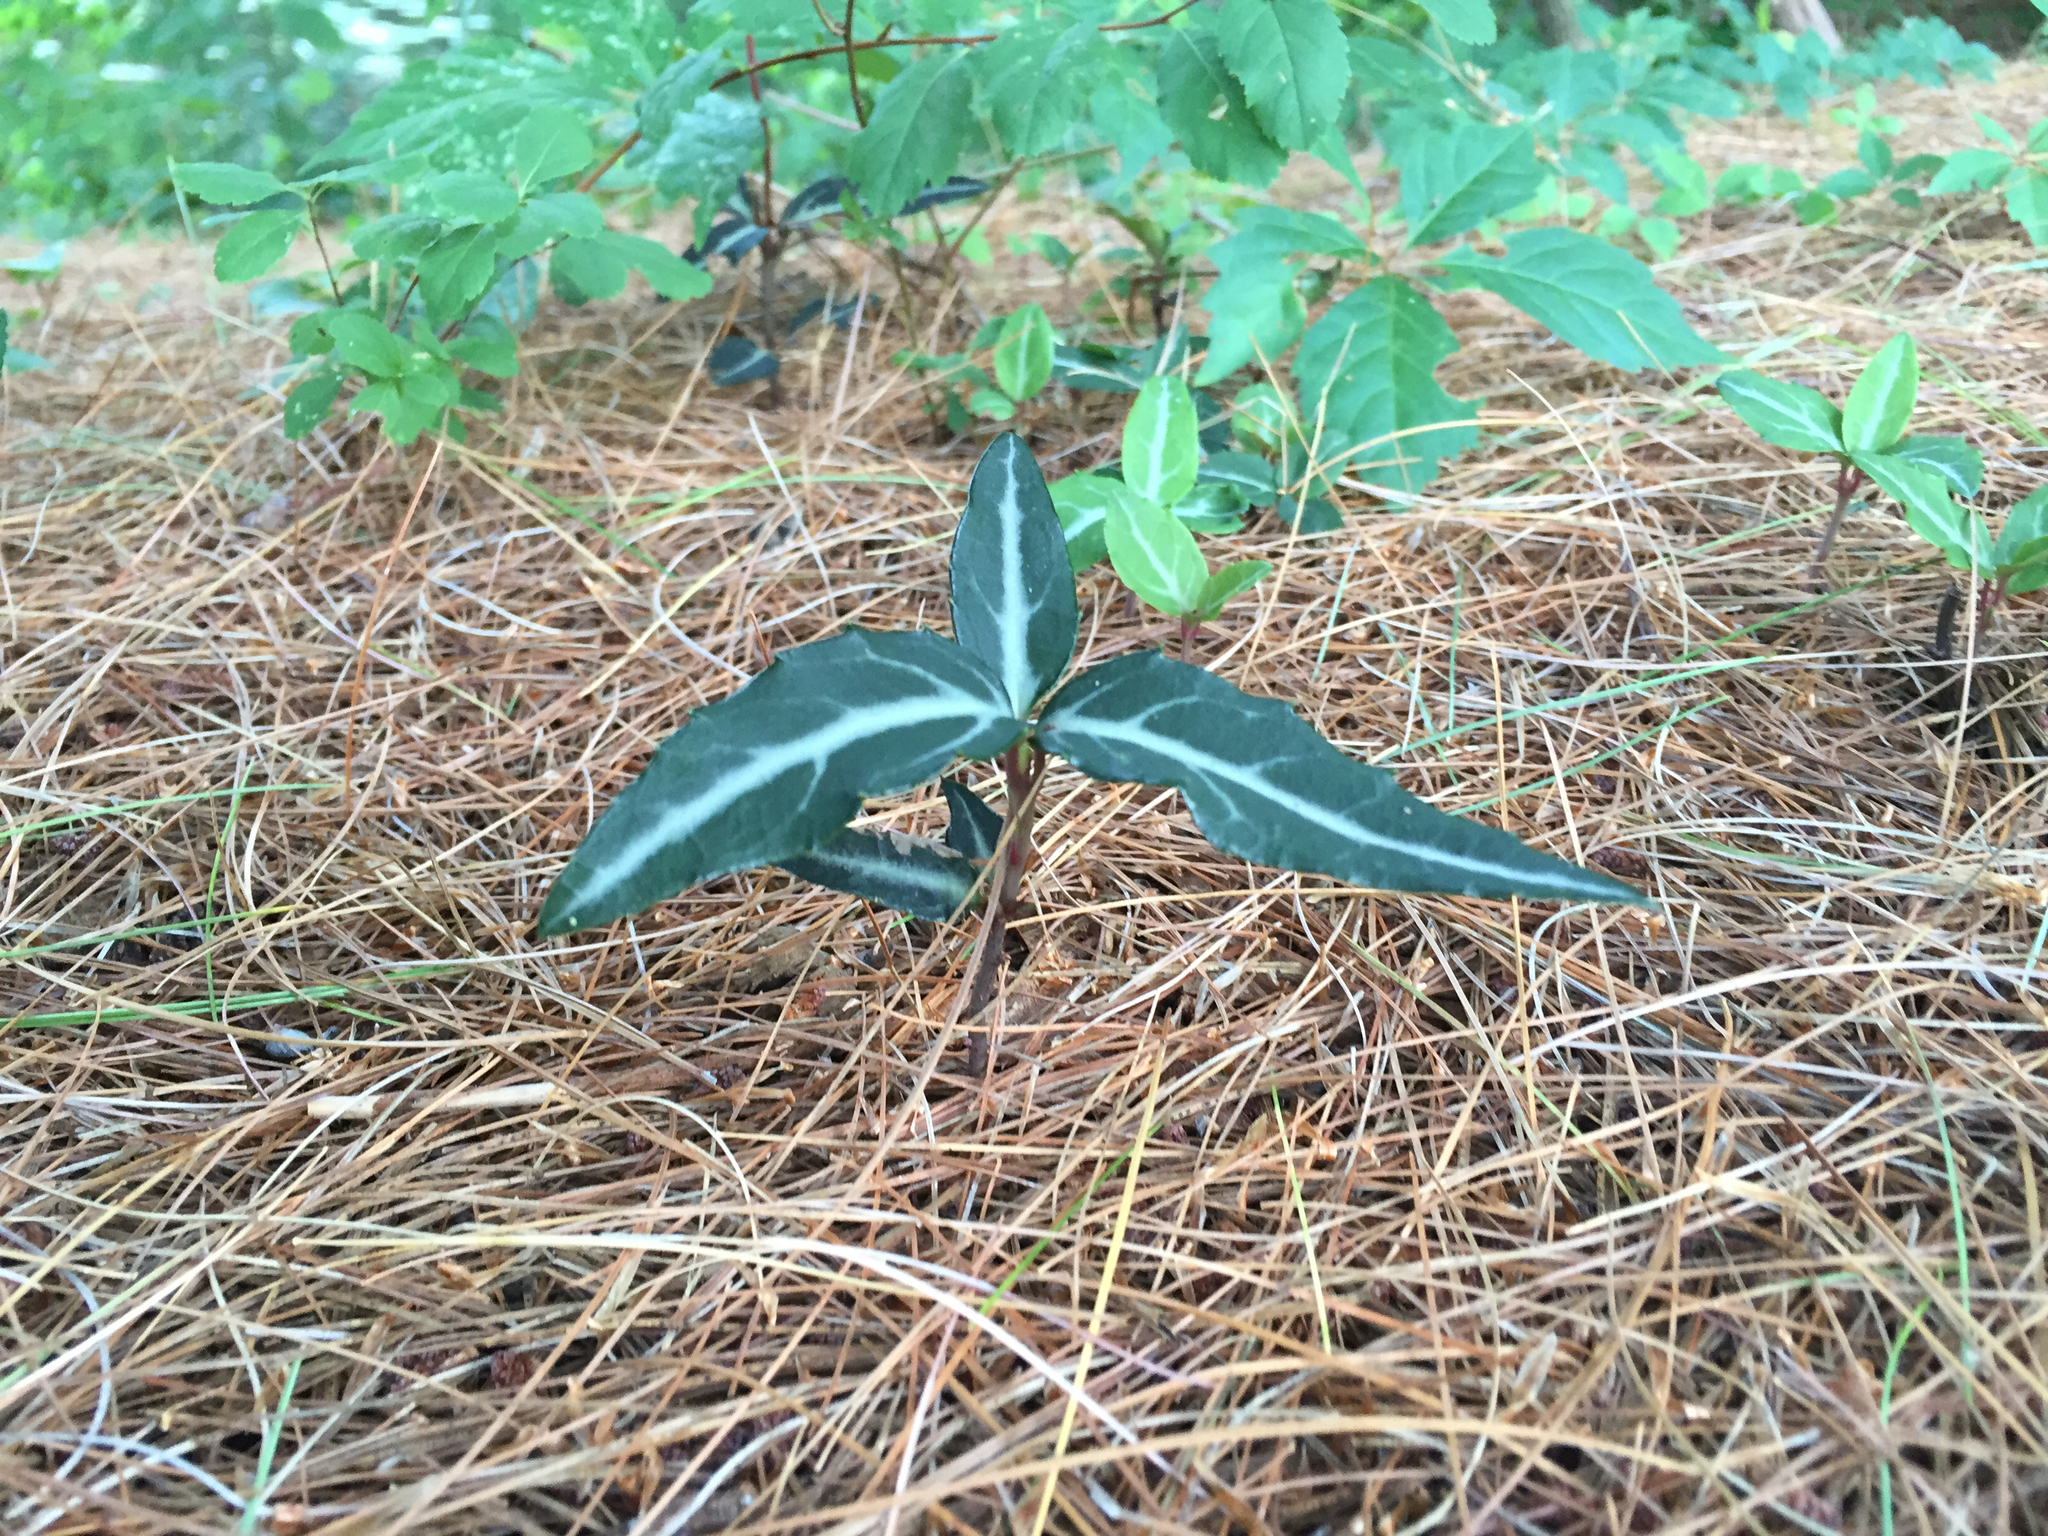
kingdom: Plantae
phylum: Tracheophyta
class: Magnoliopsida
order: Ericales
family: Ericaceae
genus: Chimaphila
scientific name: Chimaphila maculata
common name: Spotted pipsissewa
